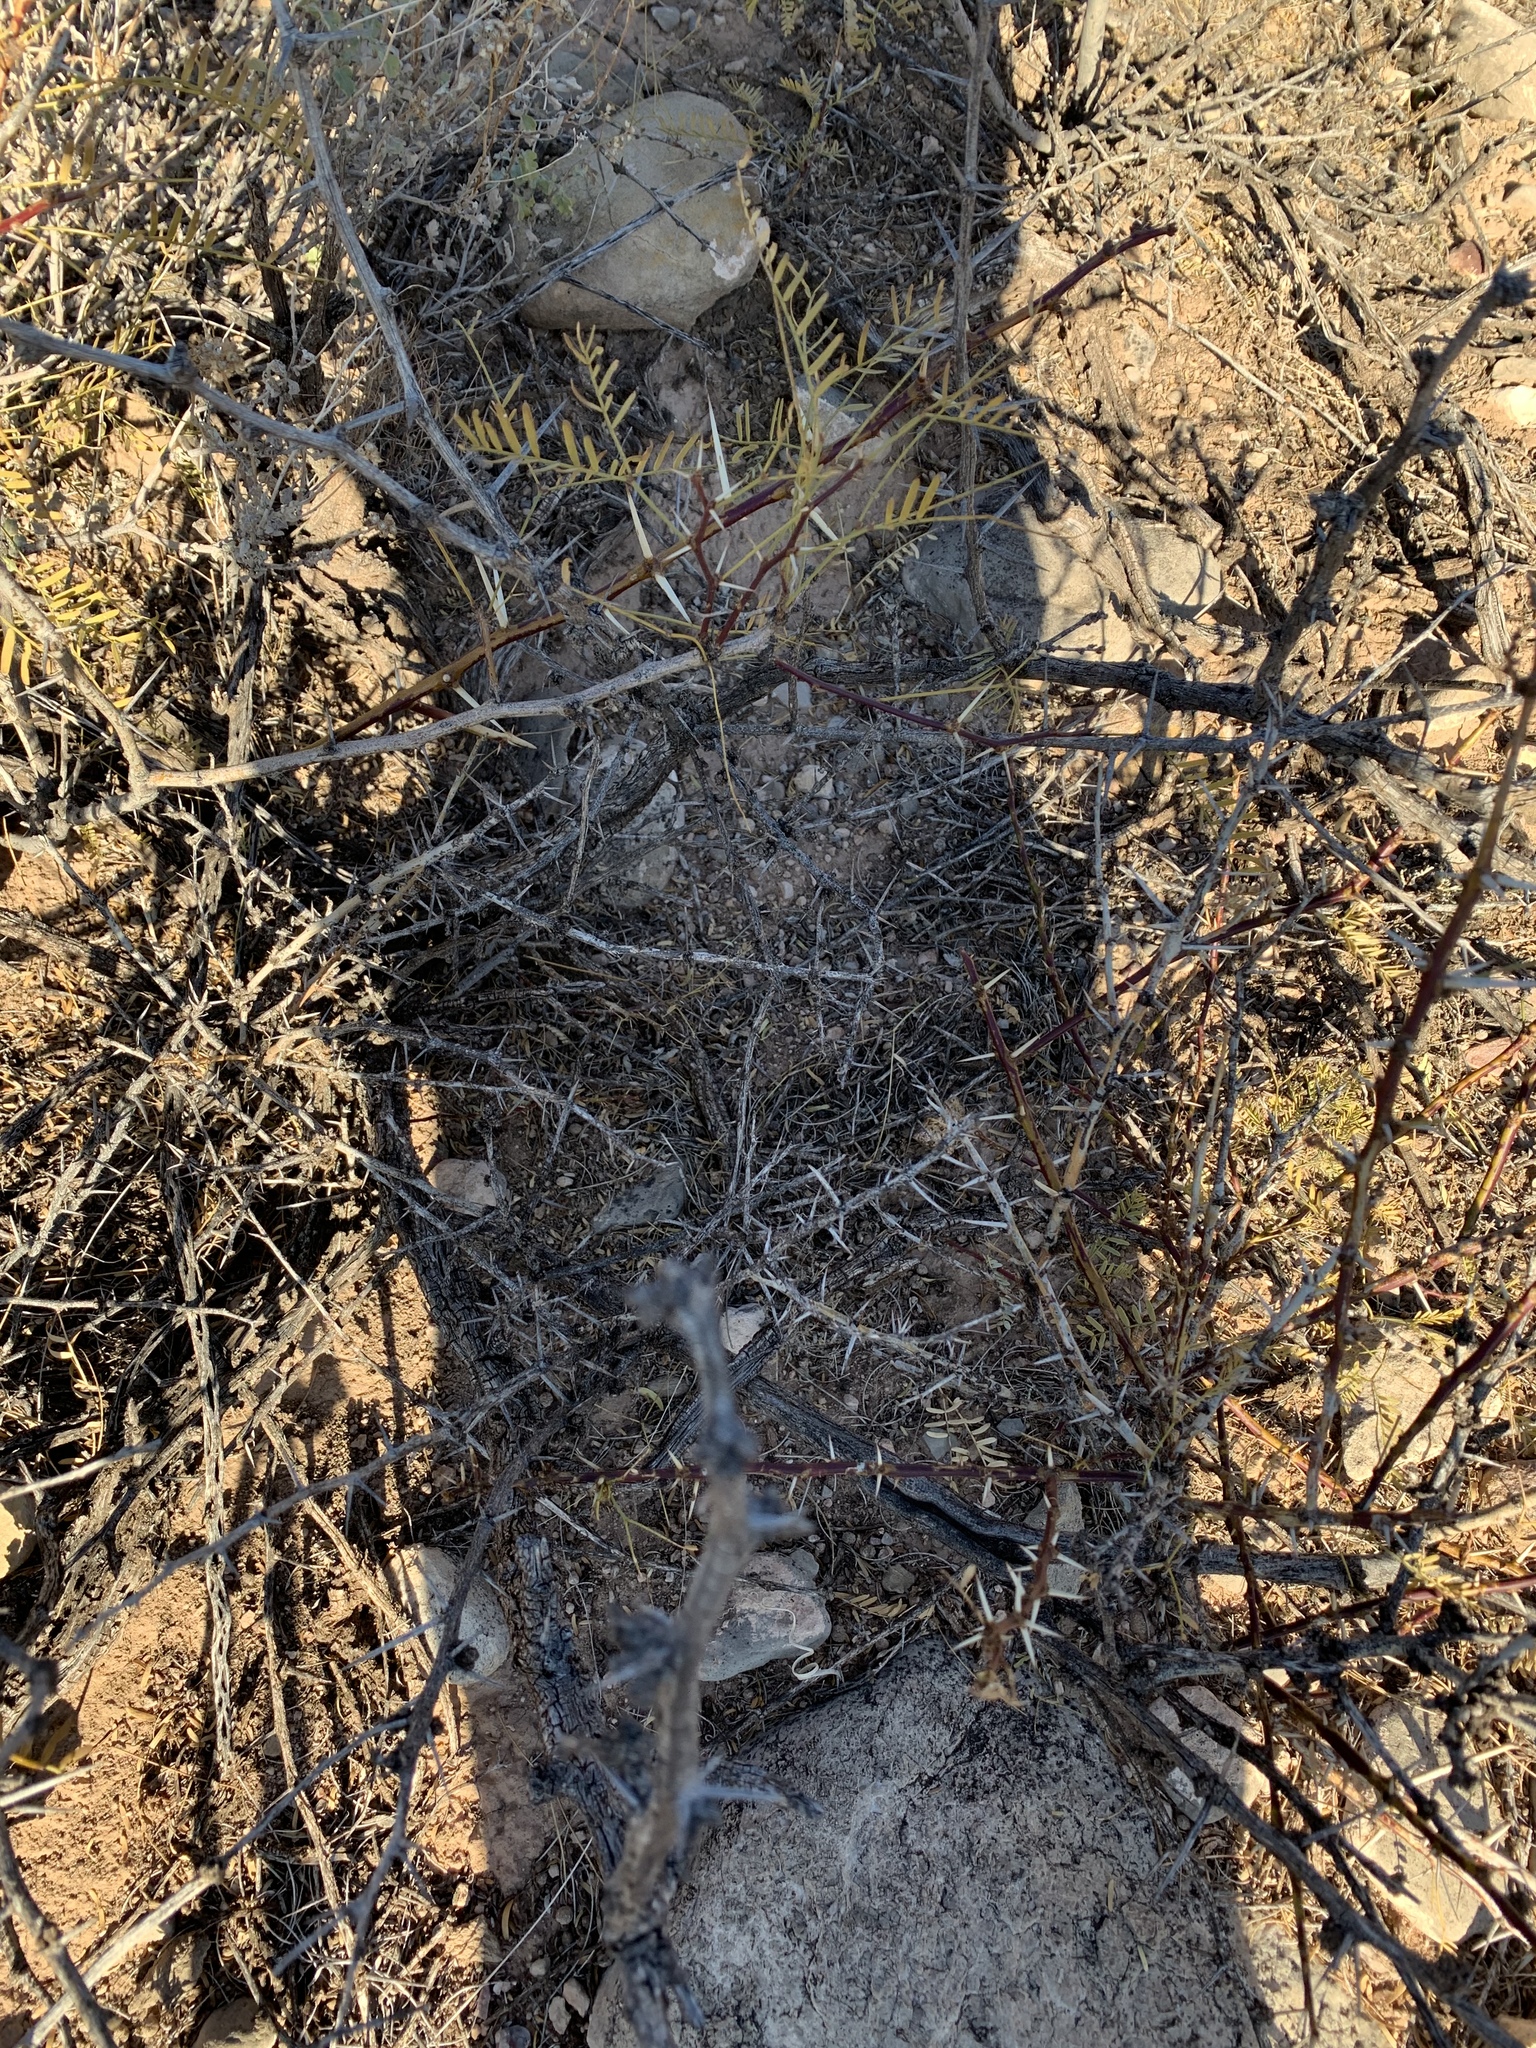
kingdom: Plantae
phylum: Tracheophyta
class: Magnoliopsida
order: Fabales
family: Fabaceae
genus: Prosopis
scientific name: Prosopis glandulosa
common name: Honey mesquite
